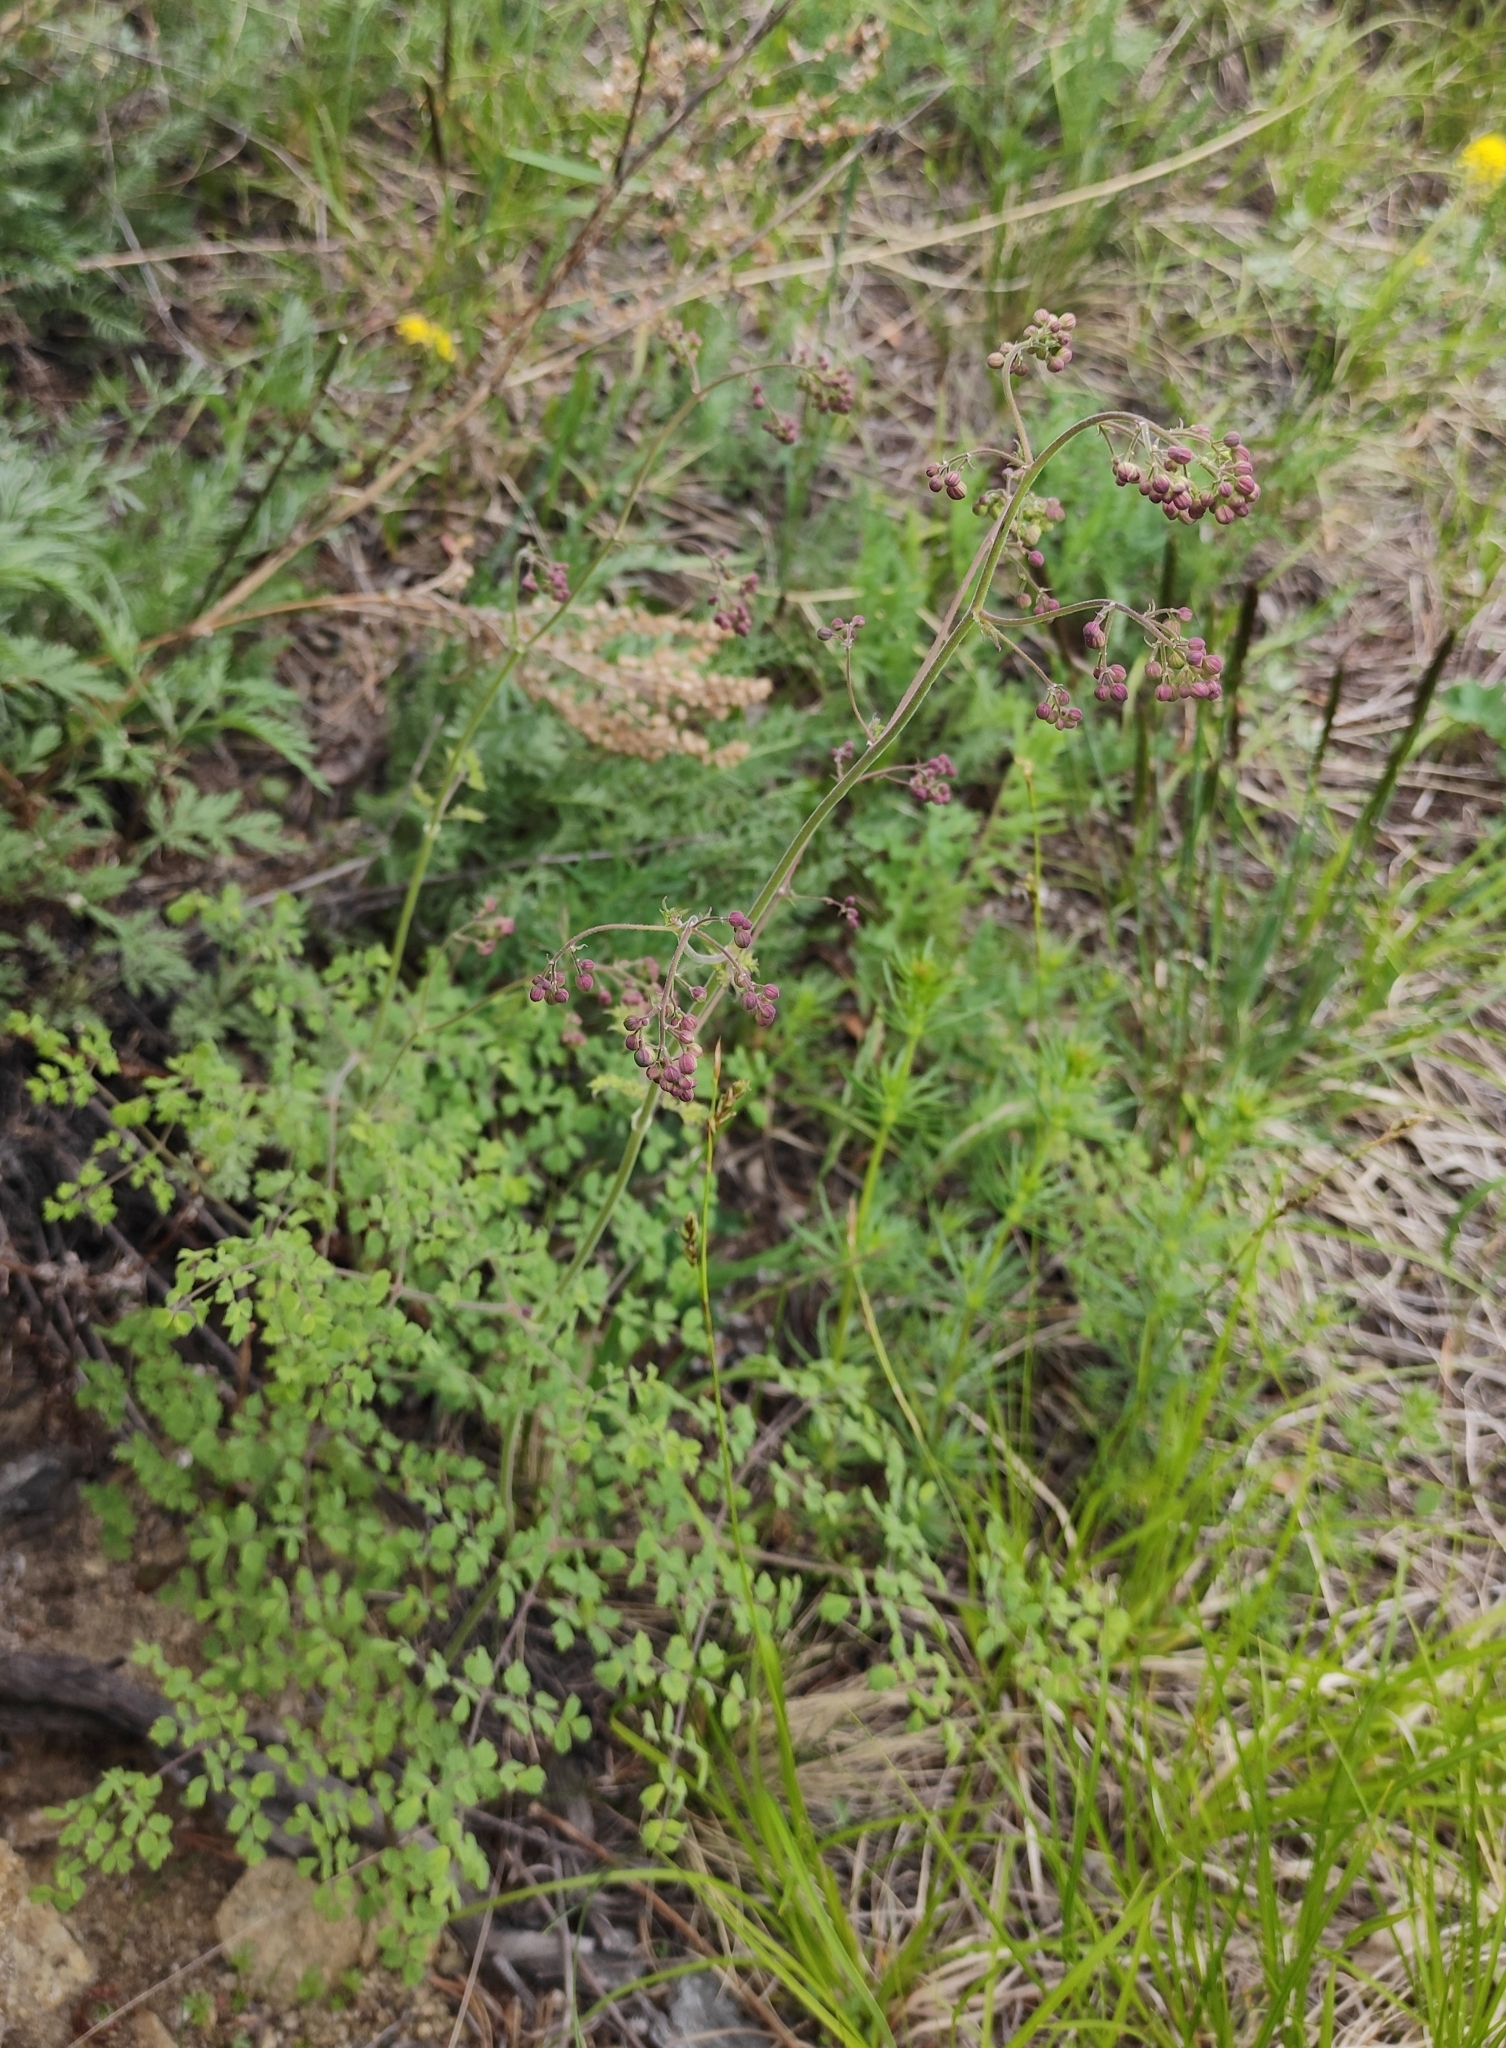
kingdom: Plantae
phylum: Tracheophyta
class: Magnoliopsida
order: Ranunculales
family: Ranunculaceae
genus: Thalictrum
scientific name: Thalictrum foetidum
